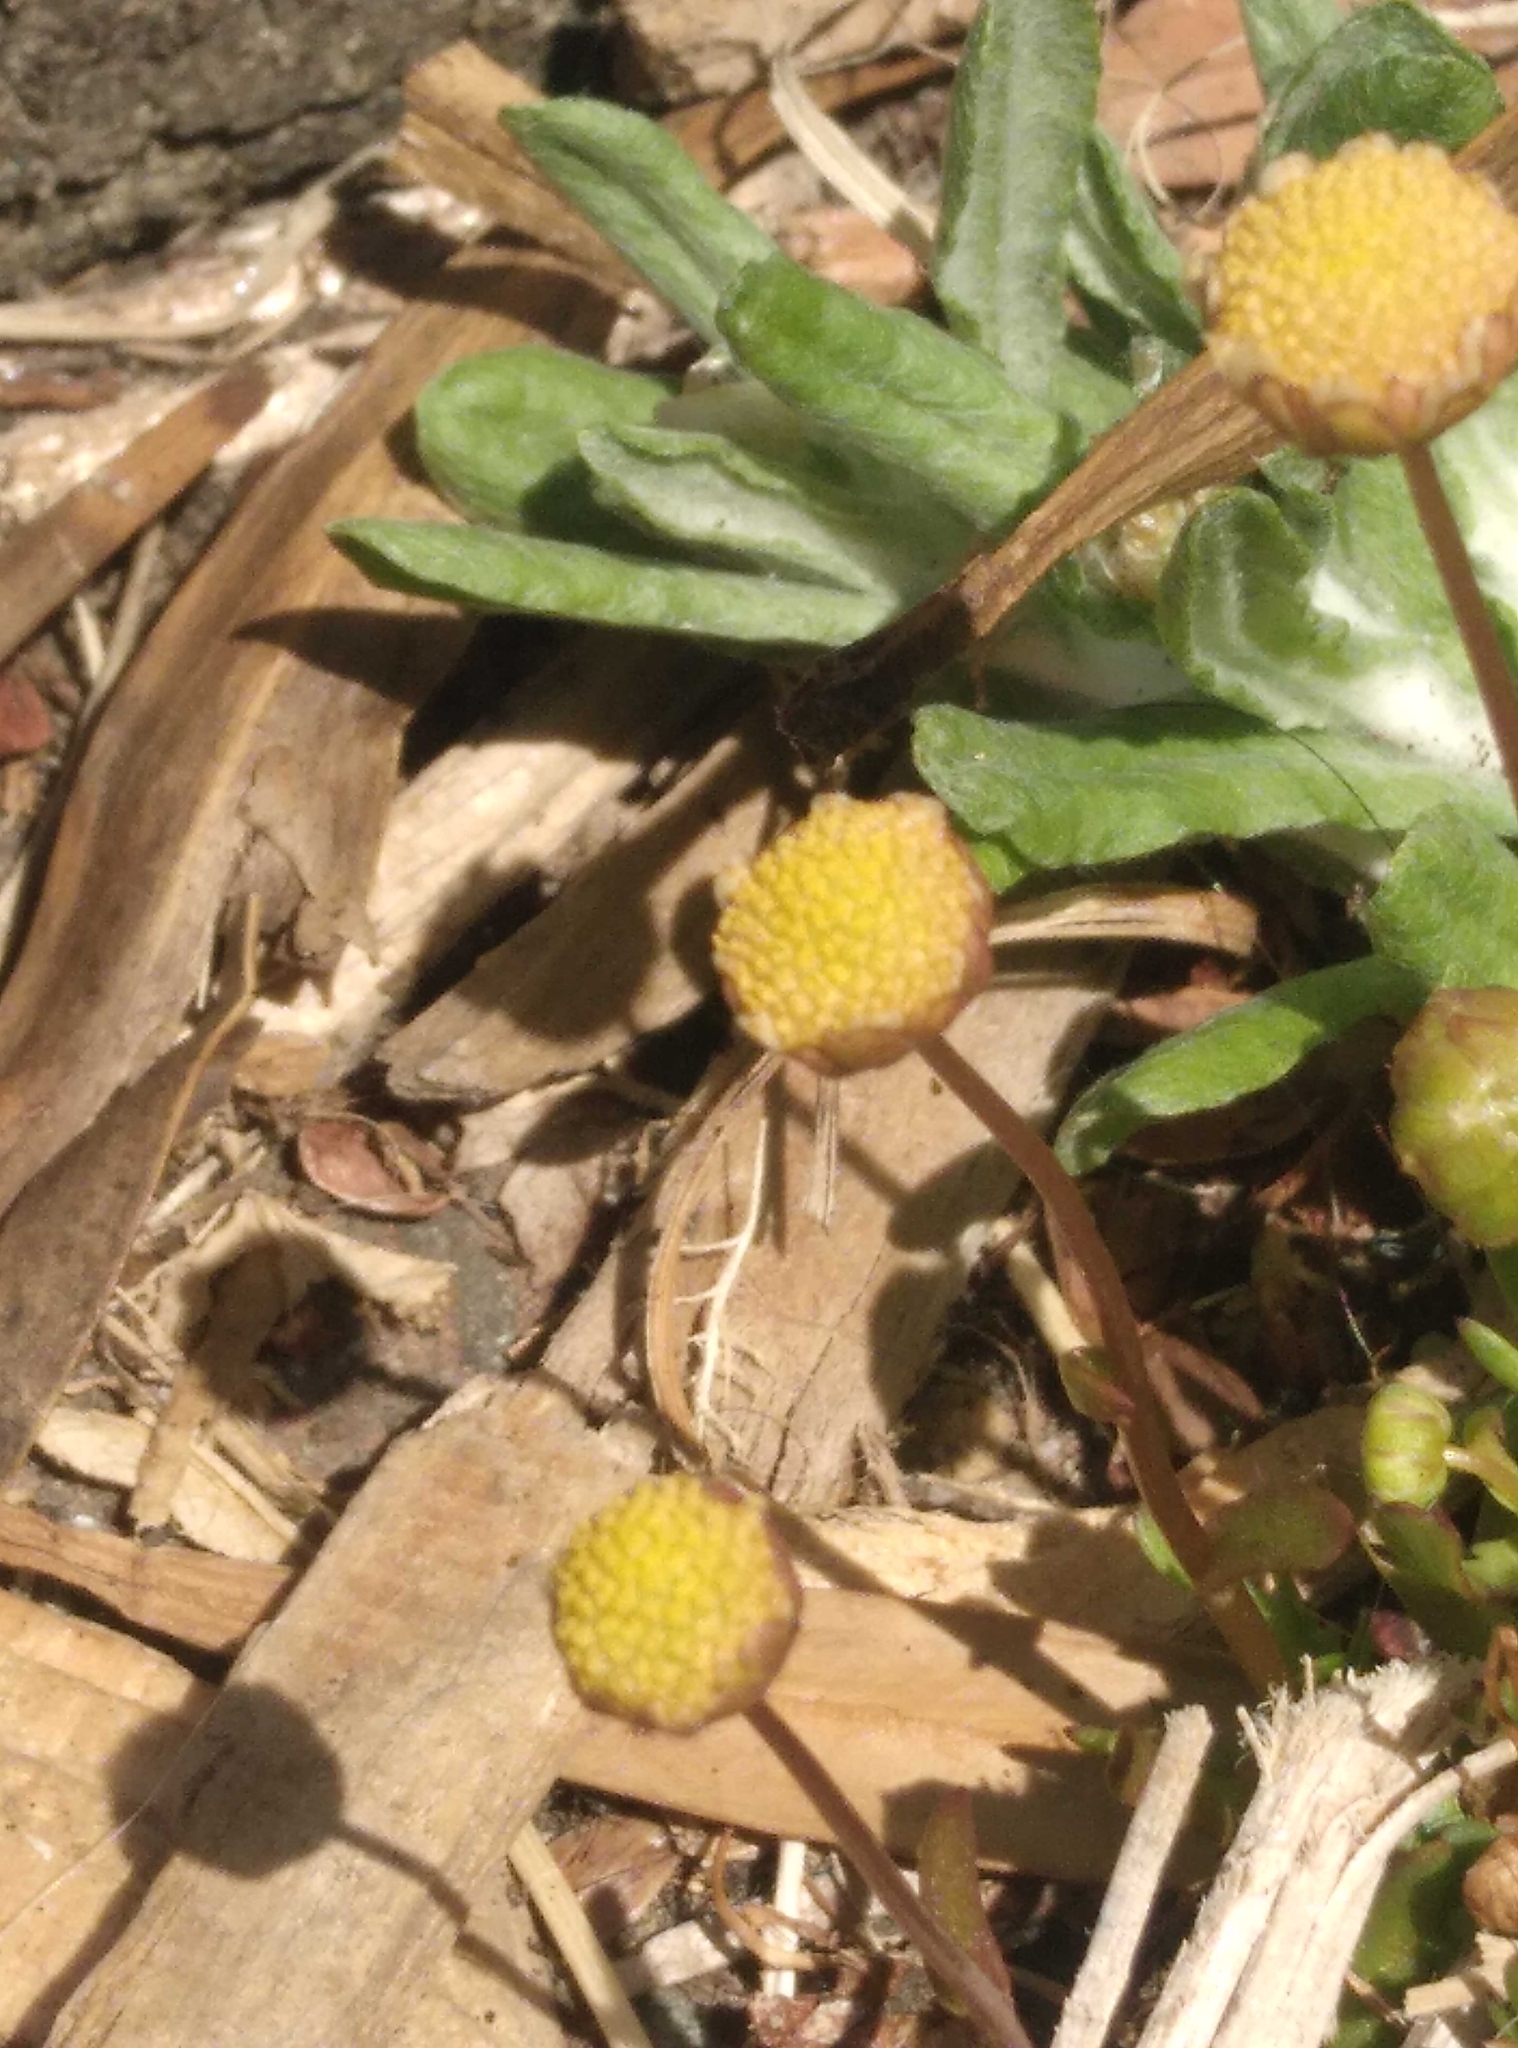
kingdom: Plantae
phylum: Tracheophyta
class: Magnoliopsida
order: Asterales
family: Asteraceae
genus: Cotula
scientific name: Cotula coronopifolia
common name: Buttonweed
